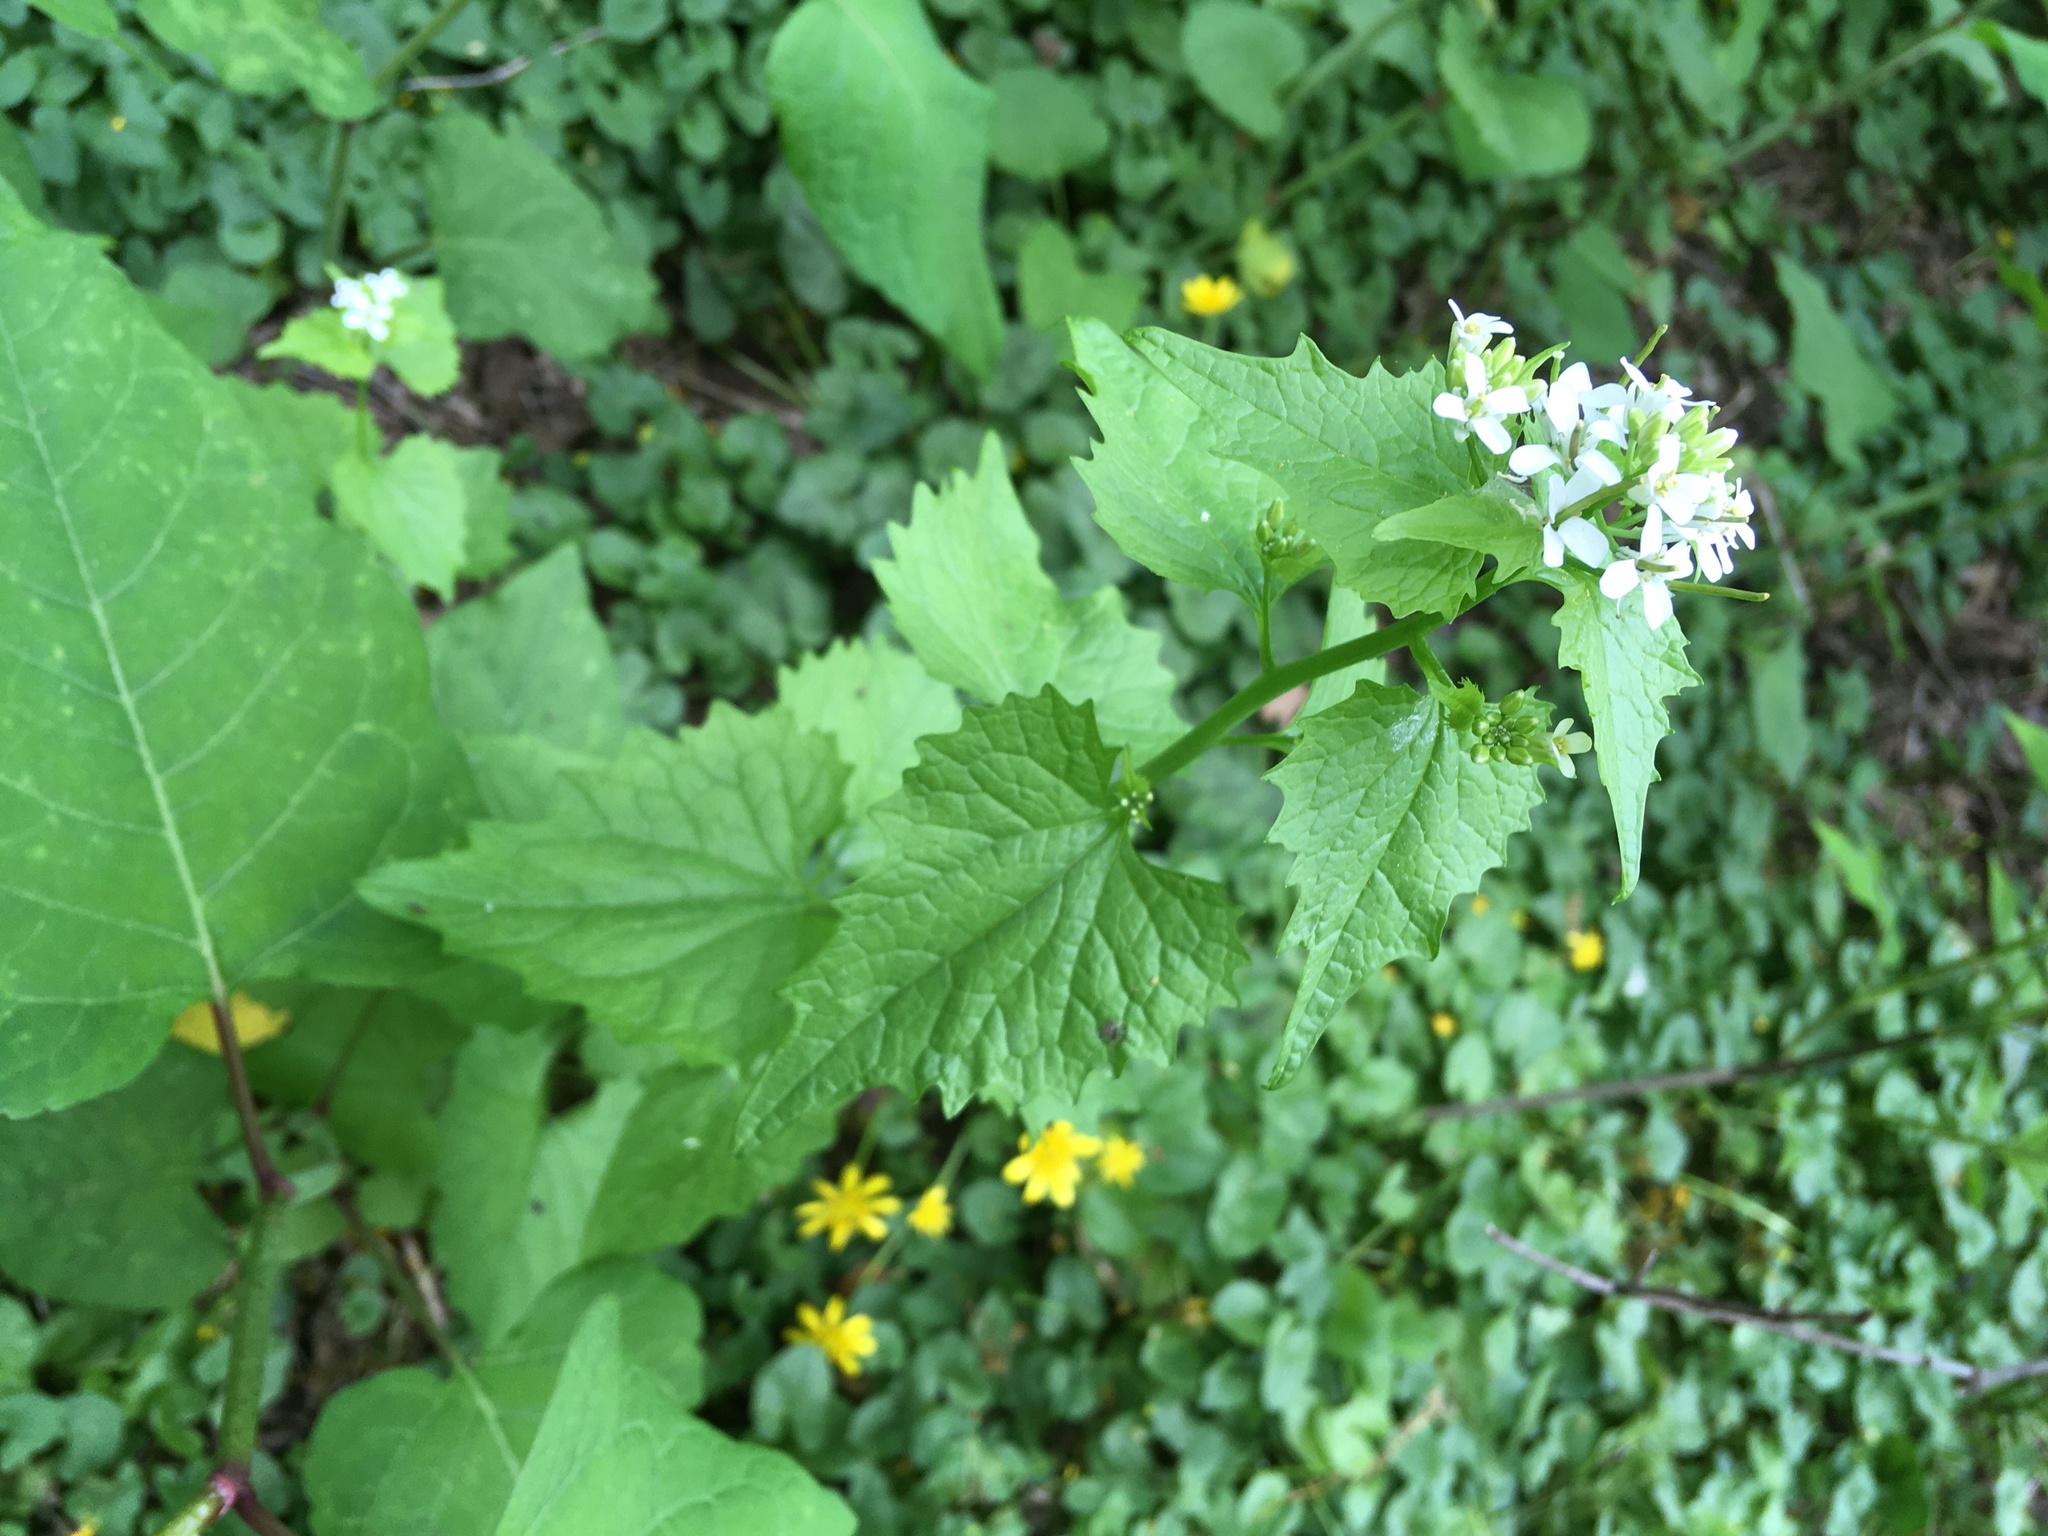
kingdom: Plantae
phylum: Tracheophyta
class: Magnoliopsida
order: Brassicales
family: Brassicaceae
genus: Alliaria
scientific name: Alliaria petiolata
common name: Garlic mustard
